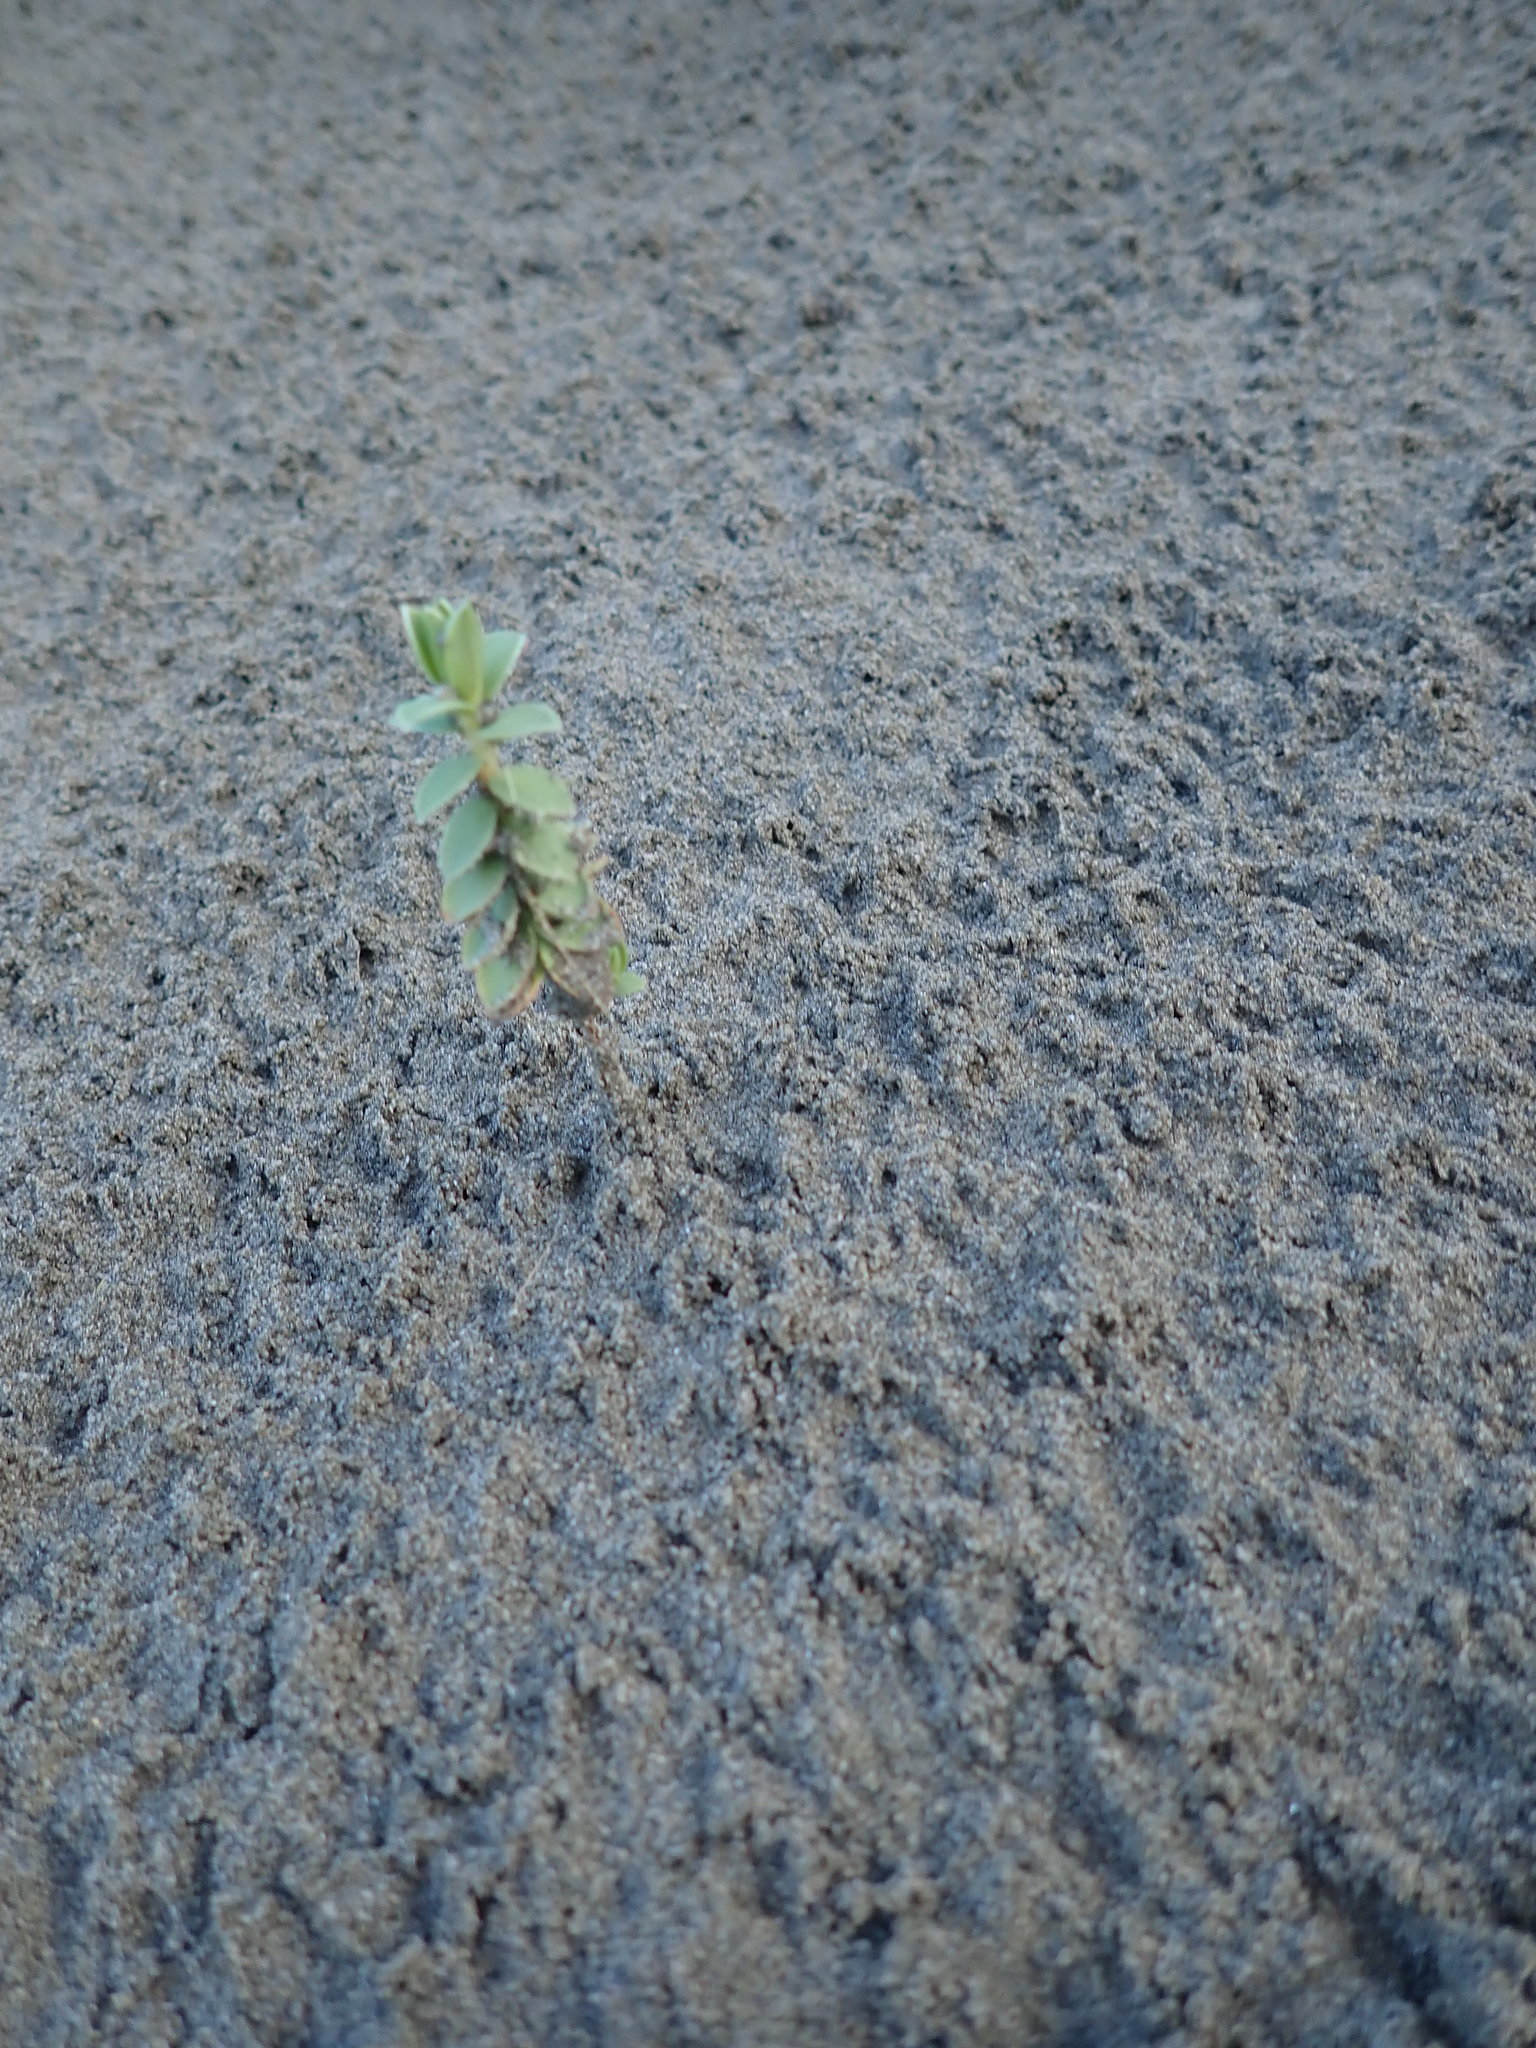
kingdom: Plantae
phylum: Tracheophyta
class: Magnoliopsida
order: Malvales
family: Thymelaeaceae
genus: Pimelea
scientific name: Pimelea villosa
